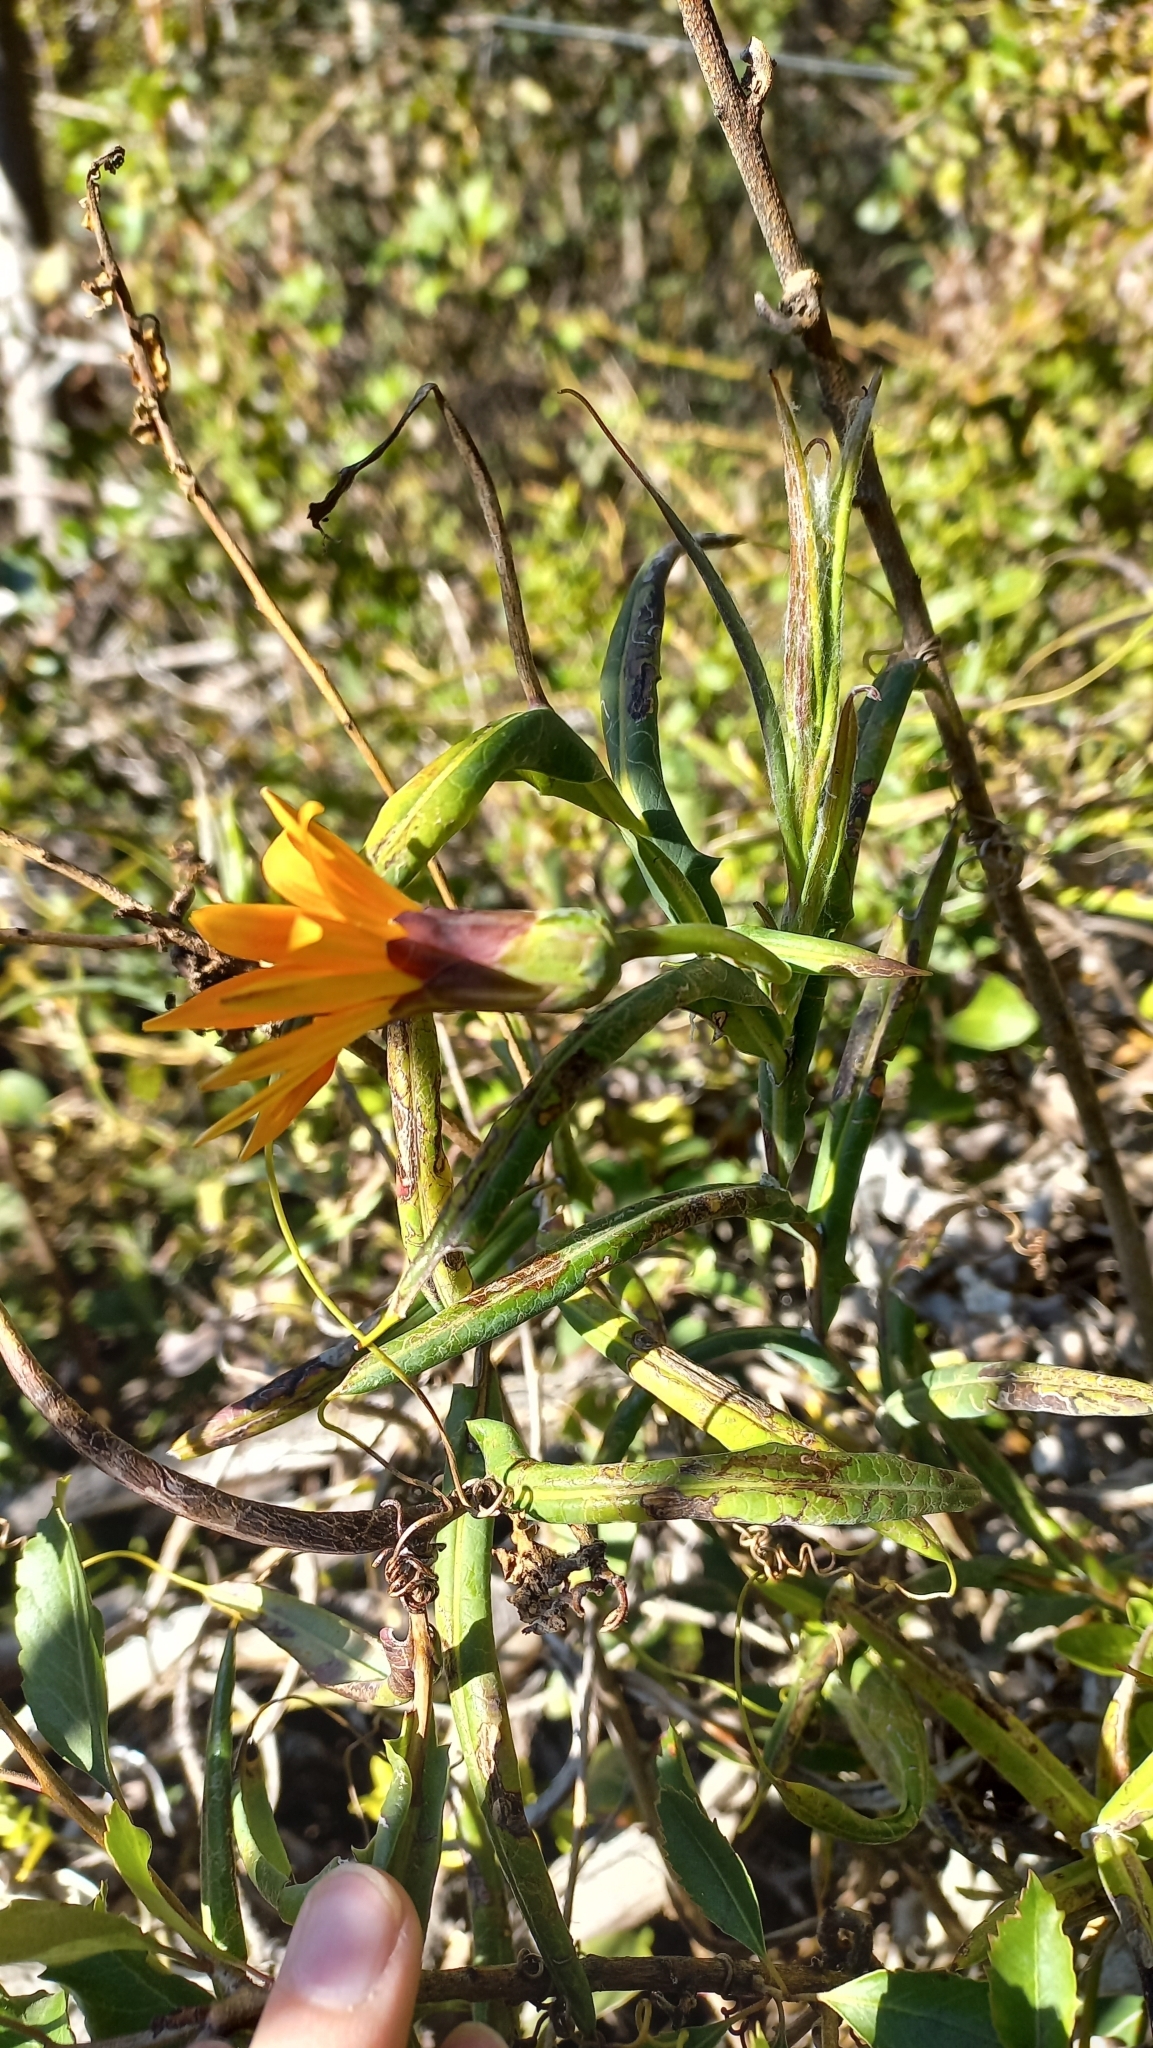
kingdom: Plantae
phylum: Tracheophyta
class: Magnoliopsida
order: Asterales
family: Asteraceae
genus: Mutisia
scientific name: Mutisia decurrens
